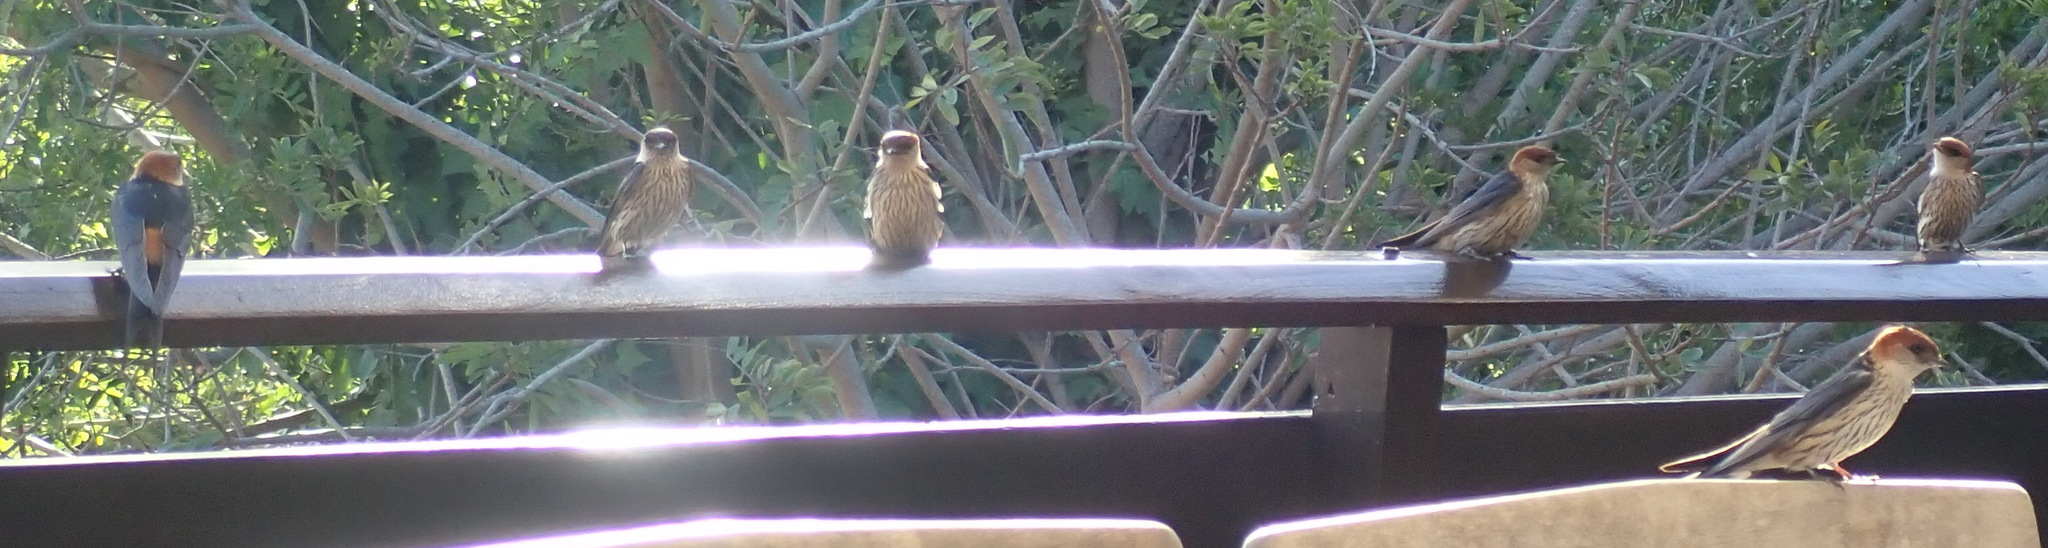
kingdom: Animalia
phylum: Chordata
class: Aves
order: Passeriformes
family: Hirundinidae
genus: Cecropis
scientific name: Cecropis cucullata
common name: Greater striped-swallow
